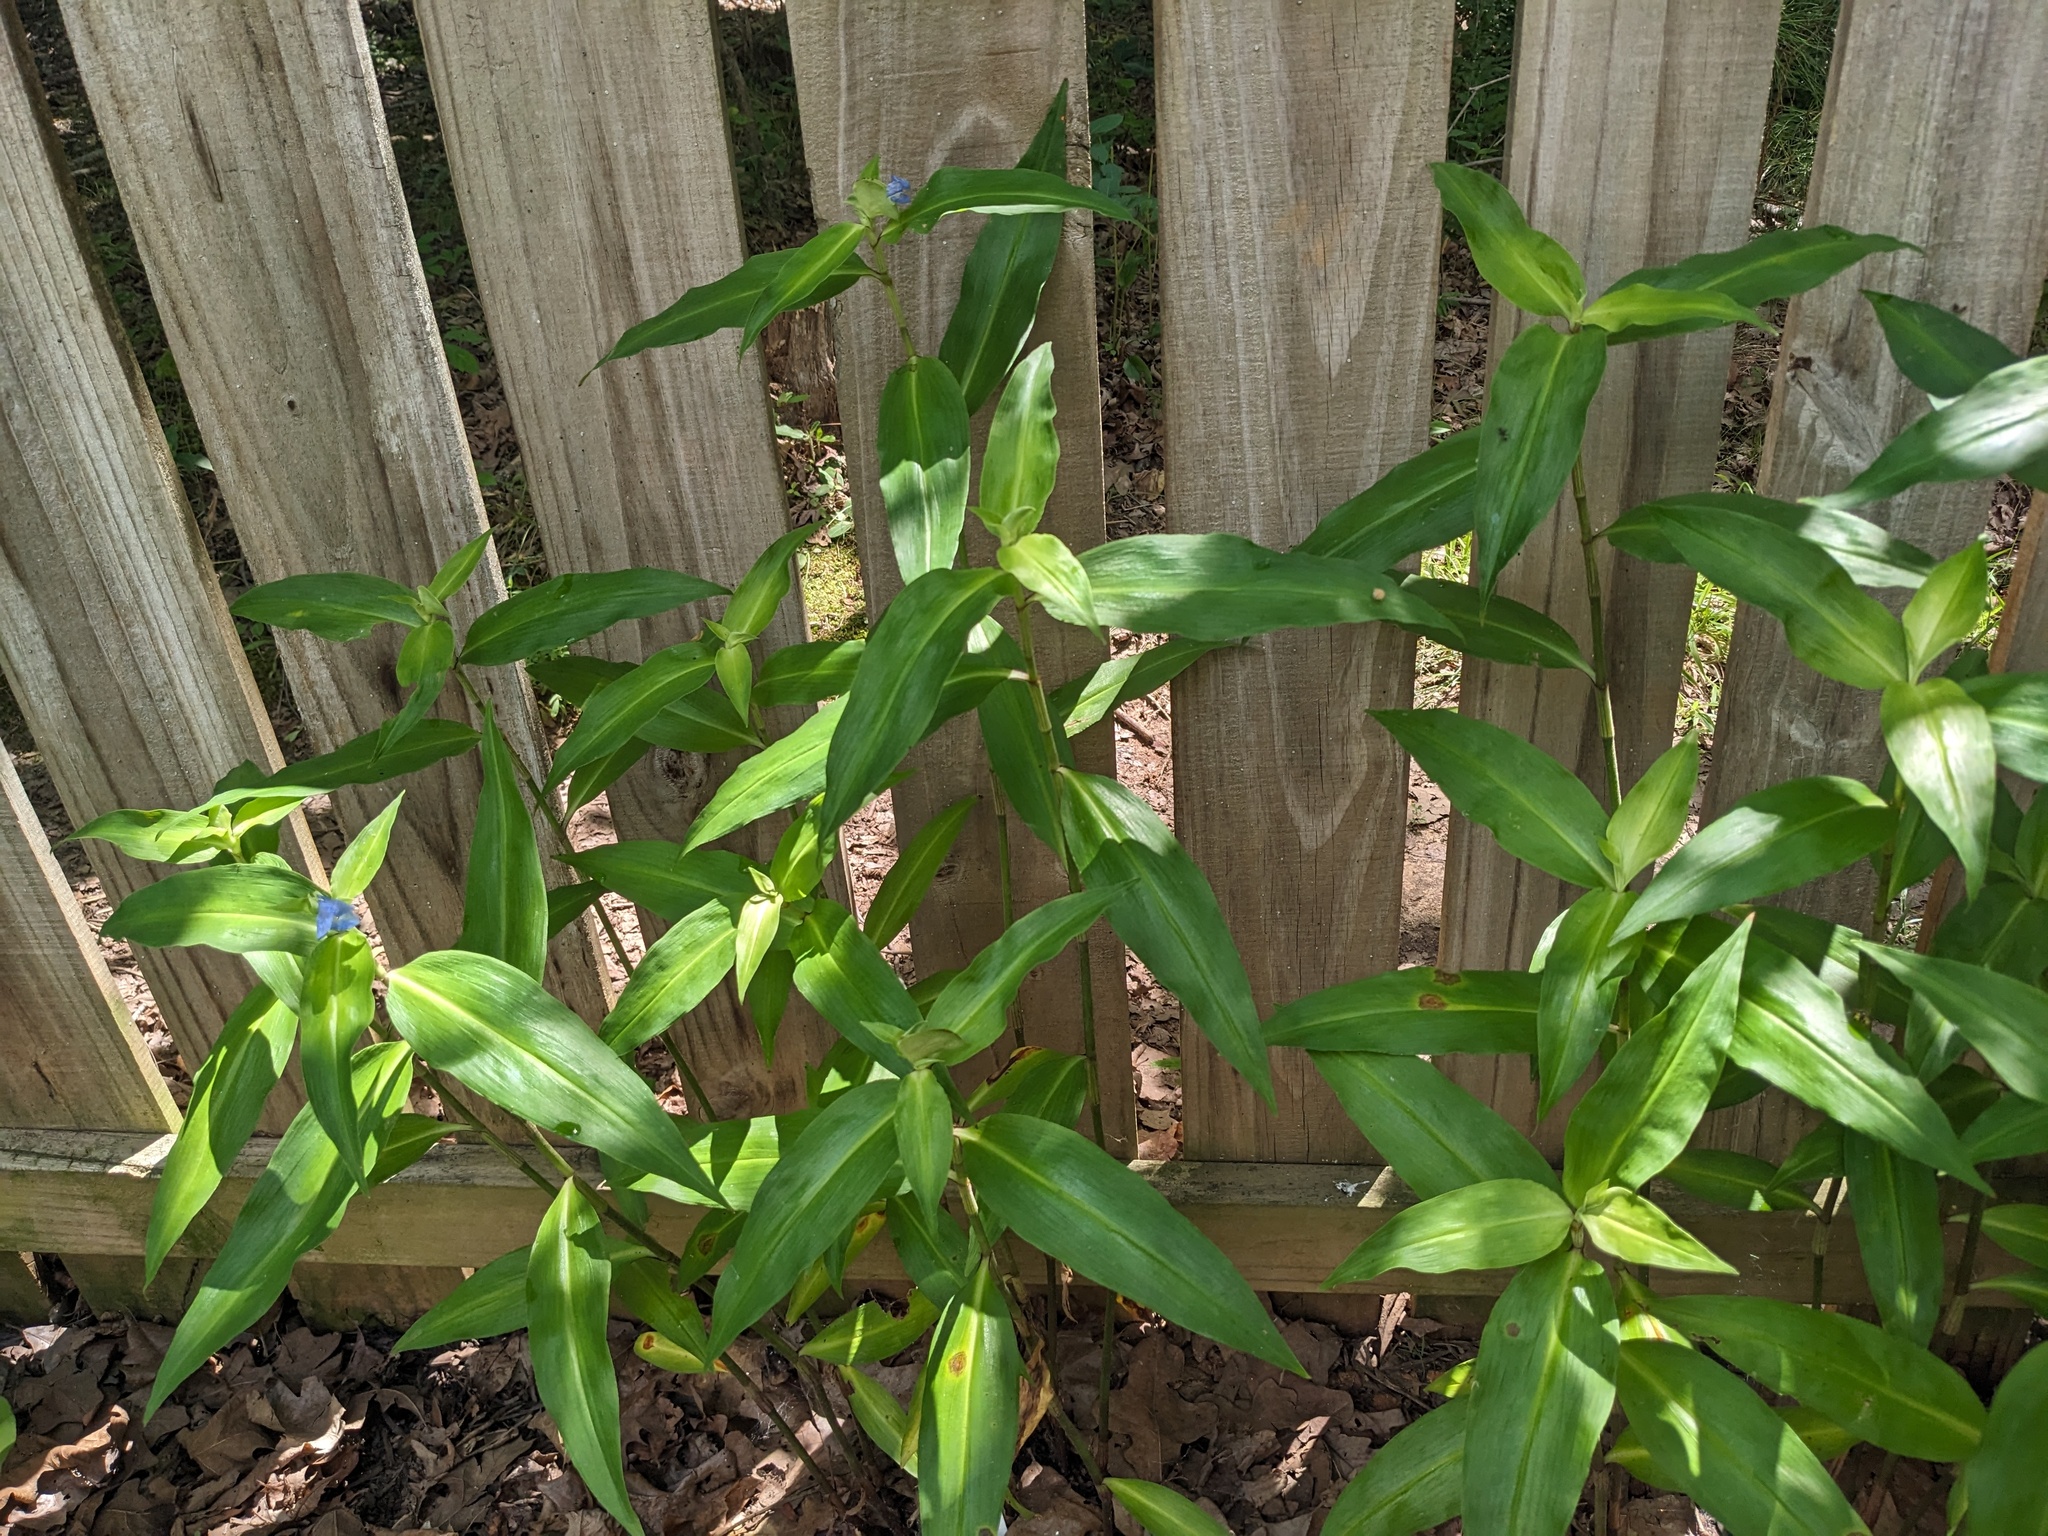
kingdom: Plantae
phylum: Tracheophyta
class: Liliopsida
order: Commelinales
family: Commelinaceae
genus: Commelina
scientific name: Commelina virginica
